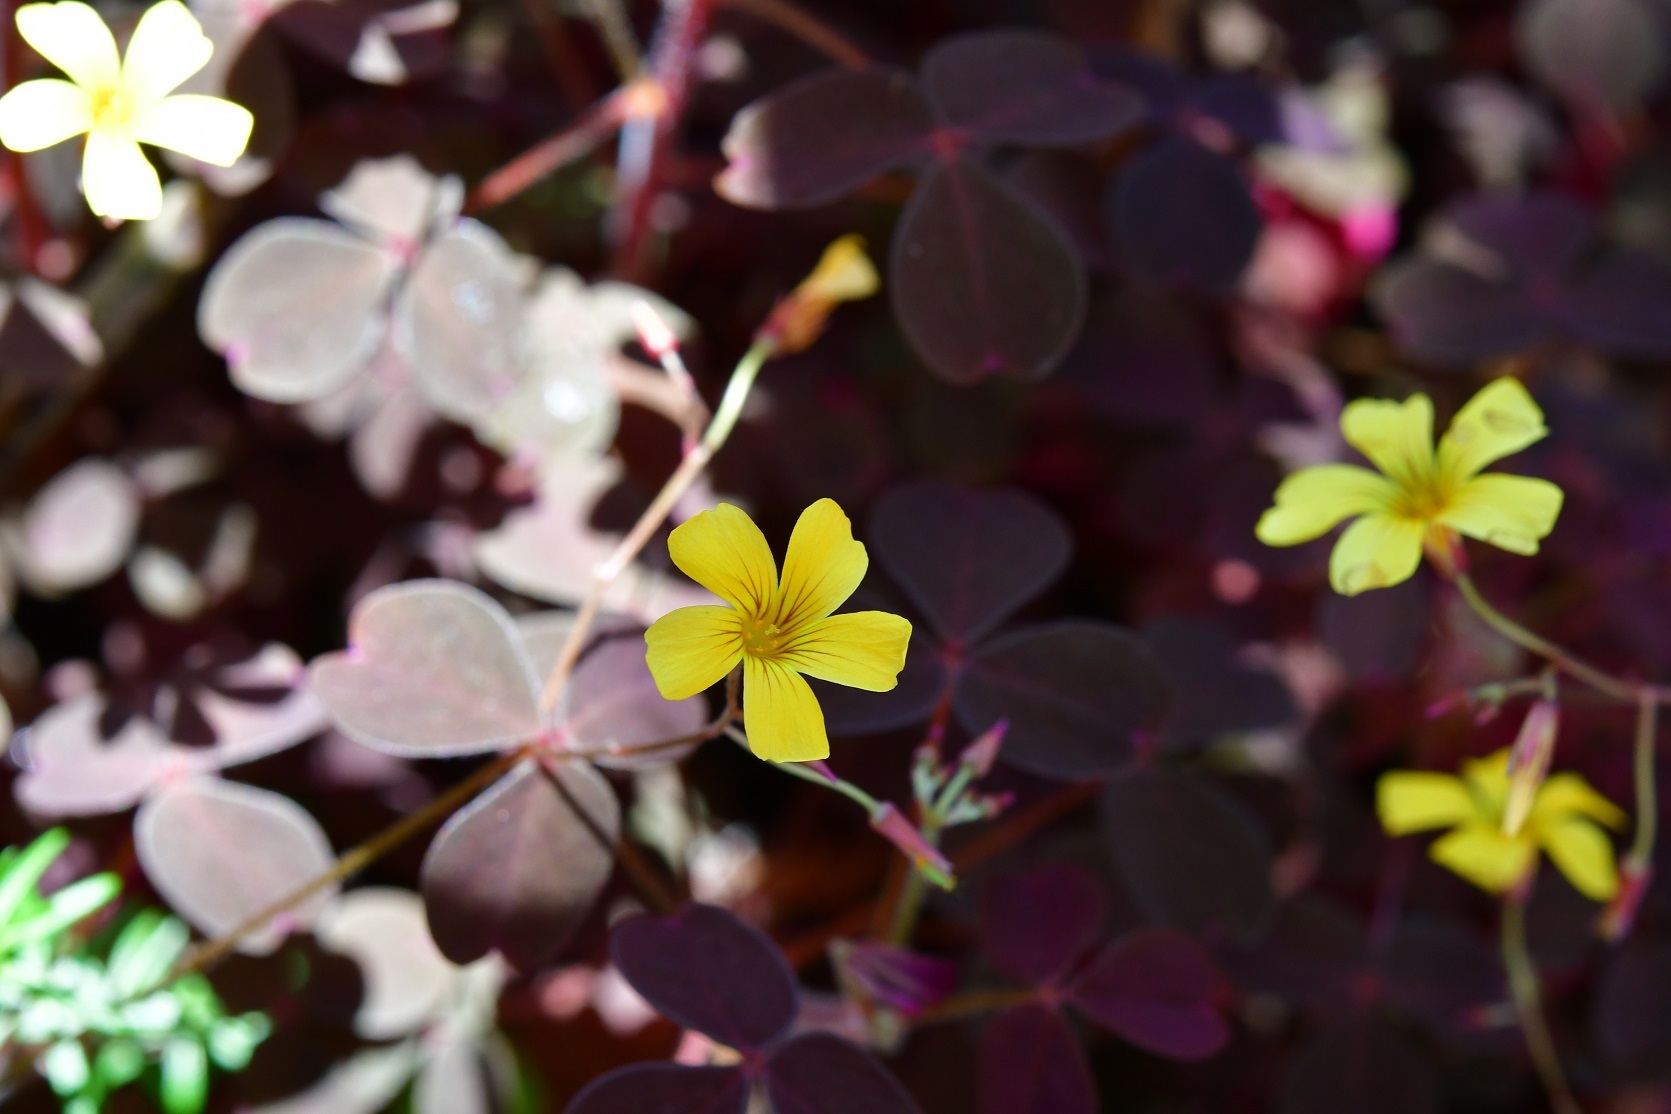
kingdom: Plantae
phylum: Tracheophyta
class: Magnoliopsida
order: Oxalidales
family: Oxalidaceae
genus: Oxalis
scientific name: Oxalis spiralis
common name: Spiral sorrel
